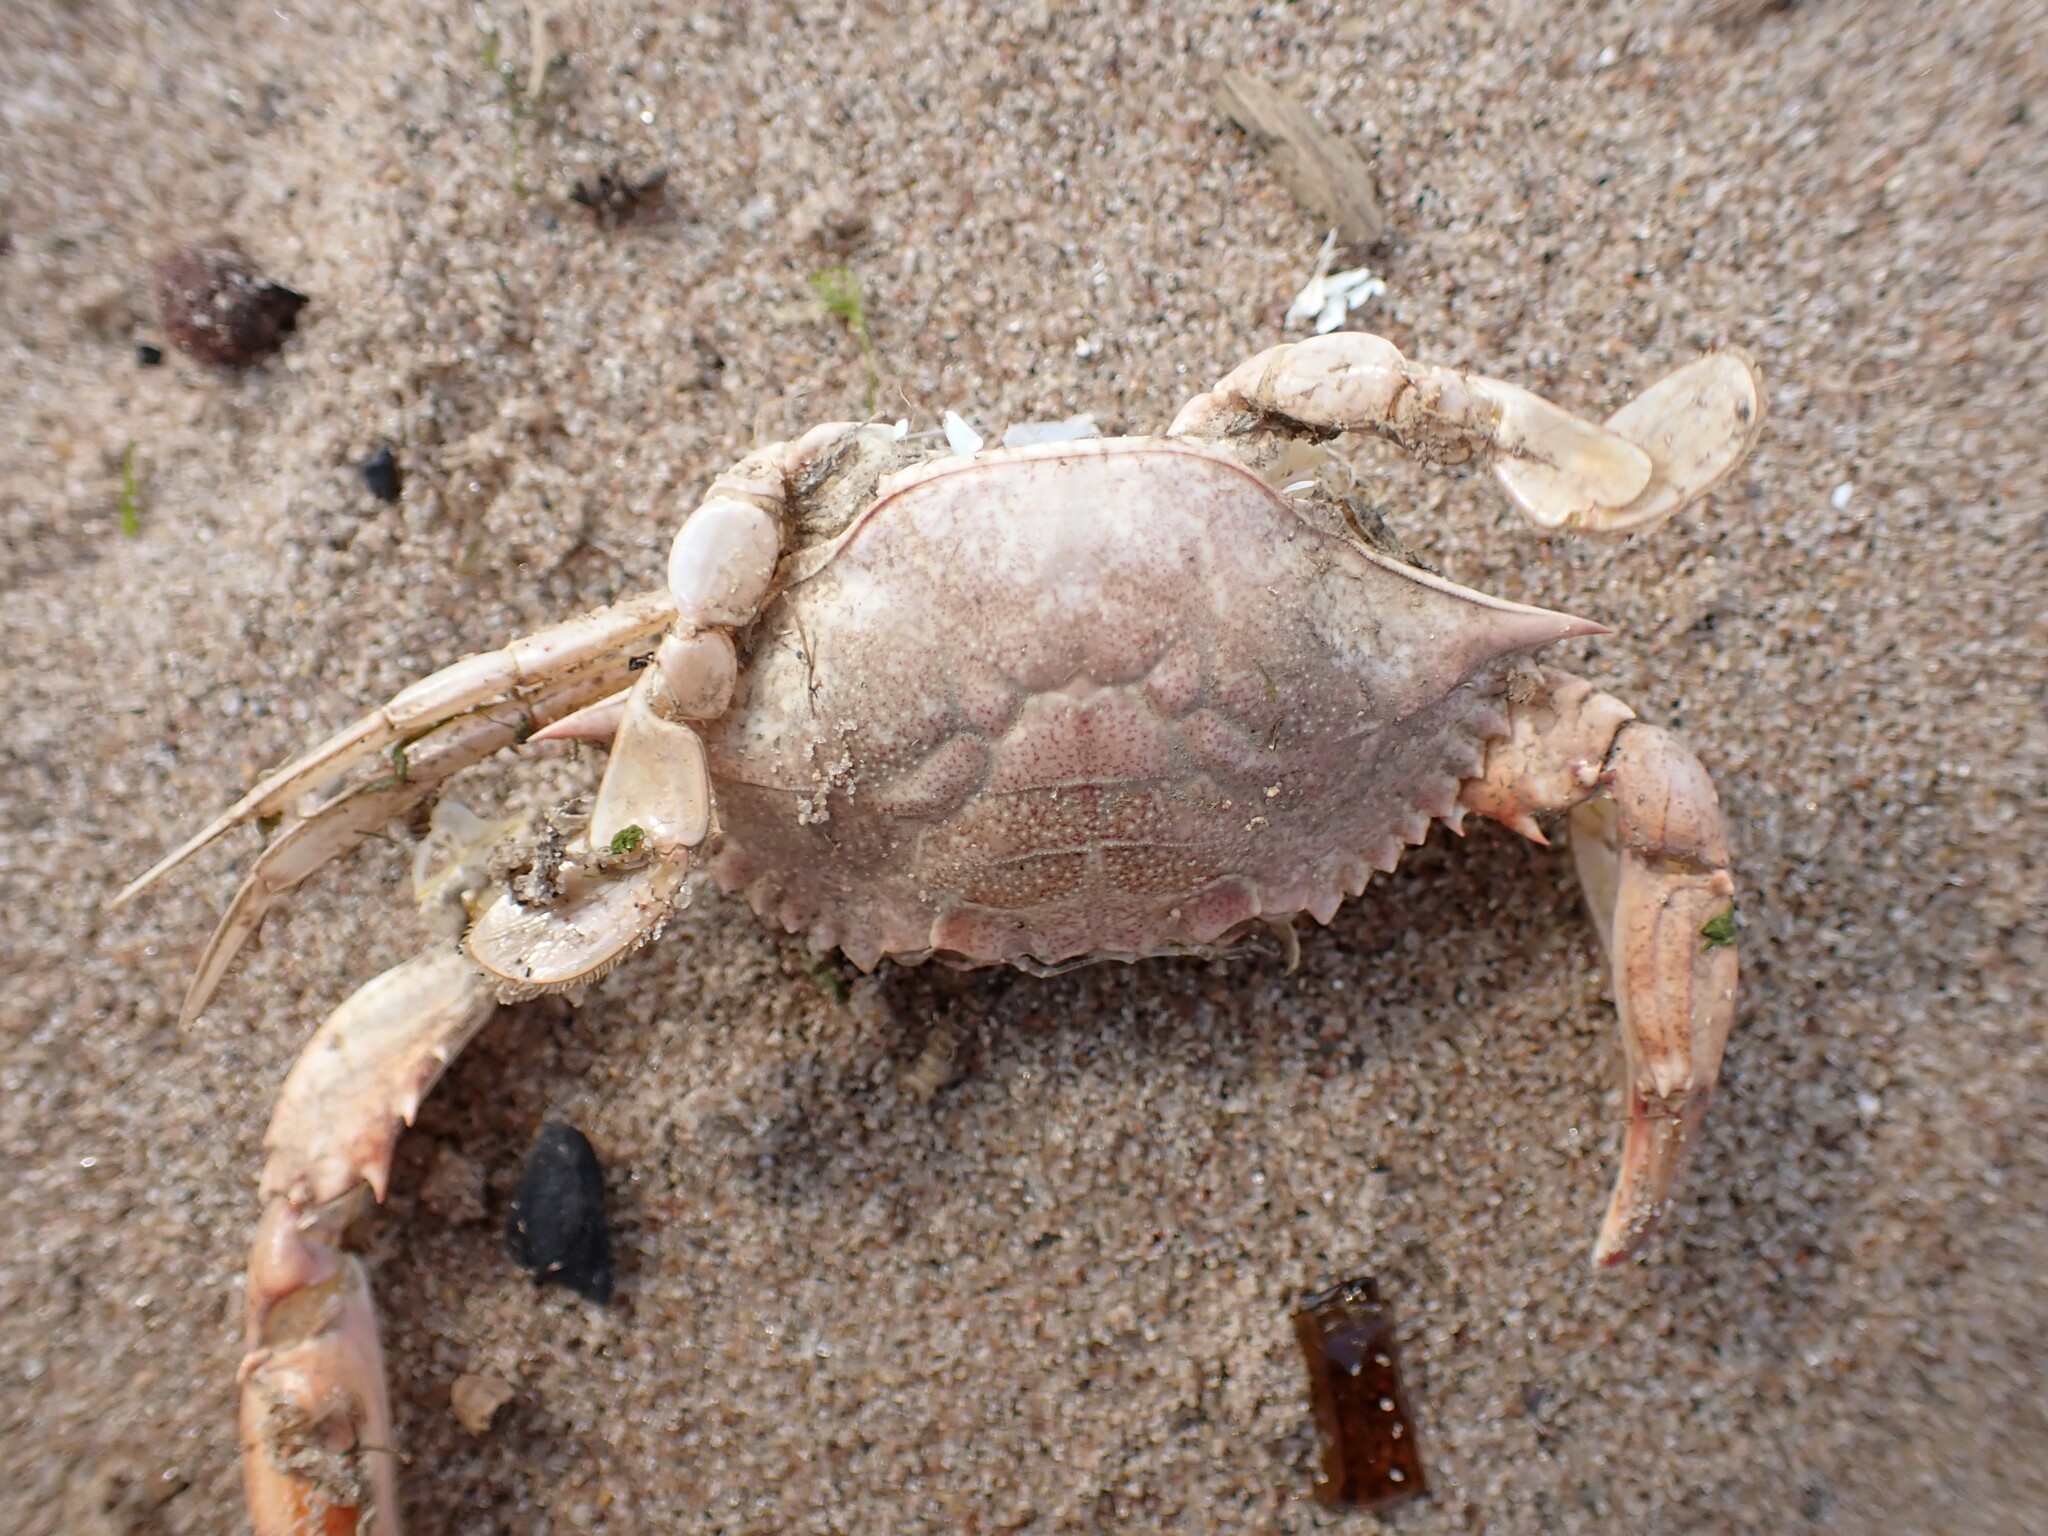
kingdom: Animalia
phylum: Arthropoda
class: Malacostraca
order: Decapoda
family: Portunidae
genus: Callinectes
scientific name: Callinectes sapidus
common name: Blue crab
